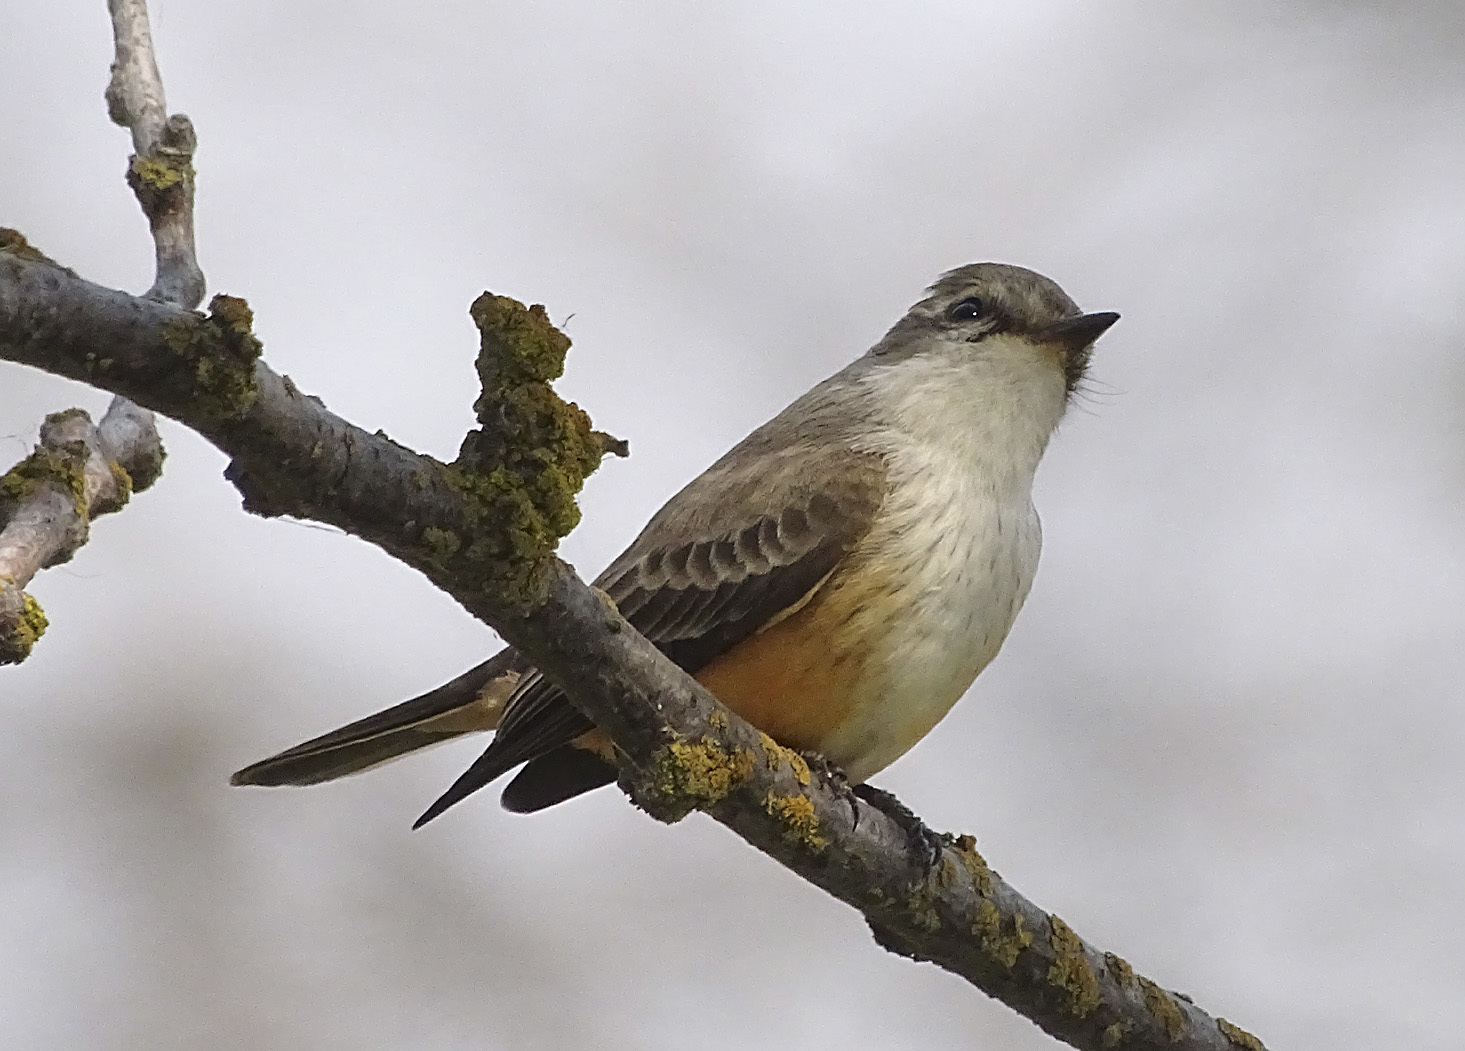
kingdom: Animalia
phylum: Chordata
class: Aves
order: Passeriformes
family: Tyrannidae
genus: Pyrocephalus
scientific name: Pyrocephalus rubinus
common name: Vermilion flycatcher
